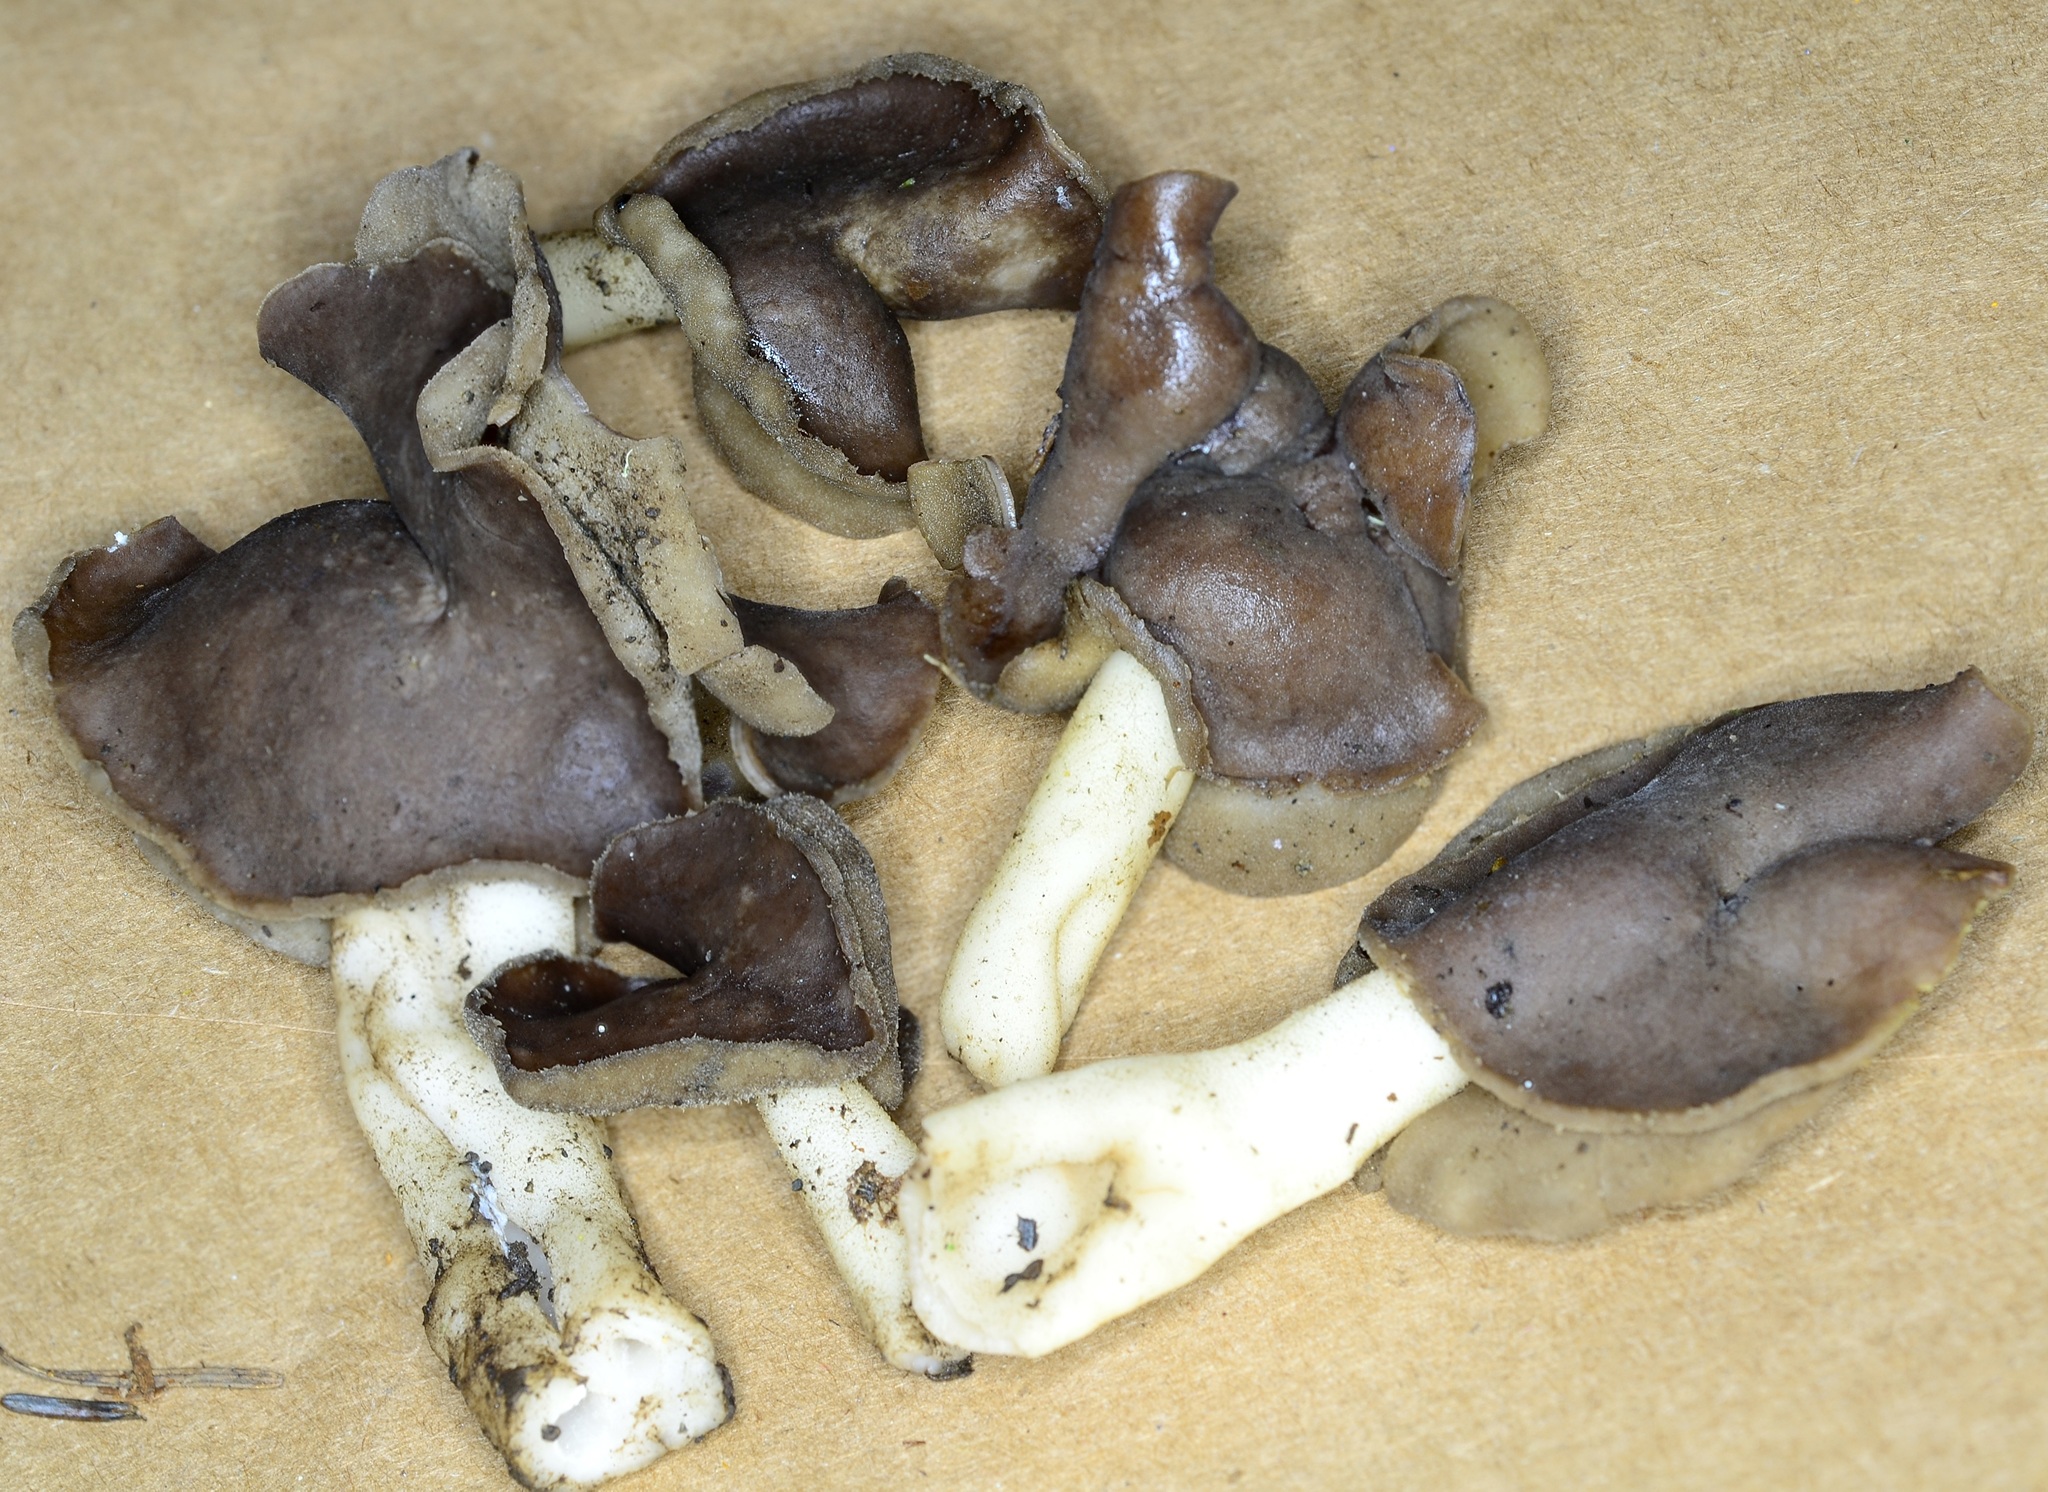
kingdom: Fungi
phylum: Ascomycota
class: Pezizomycetes
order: Pezizales
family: Helvellaceae
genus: Helvella
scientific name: Helvella compressa
